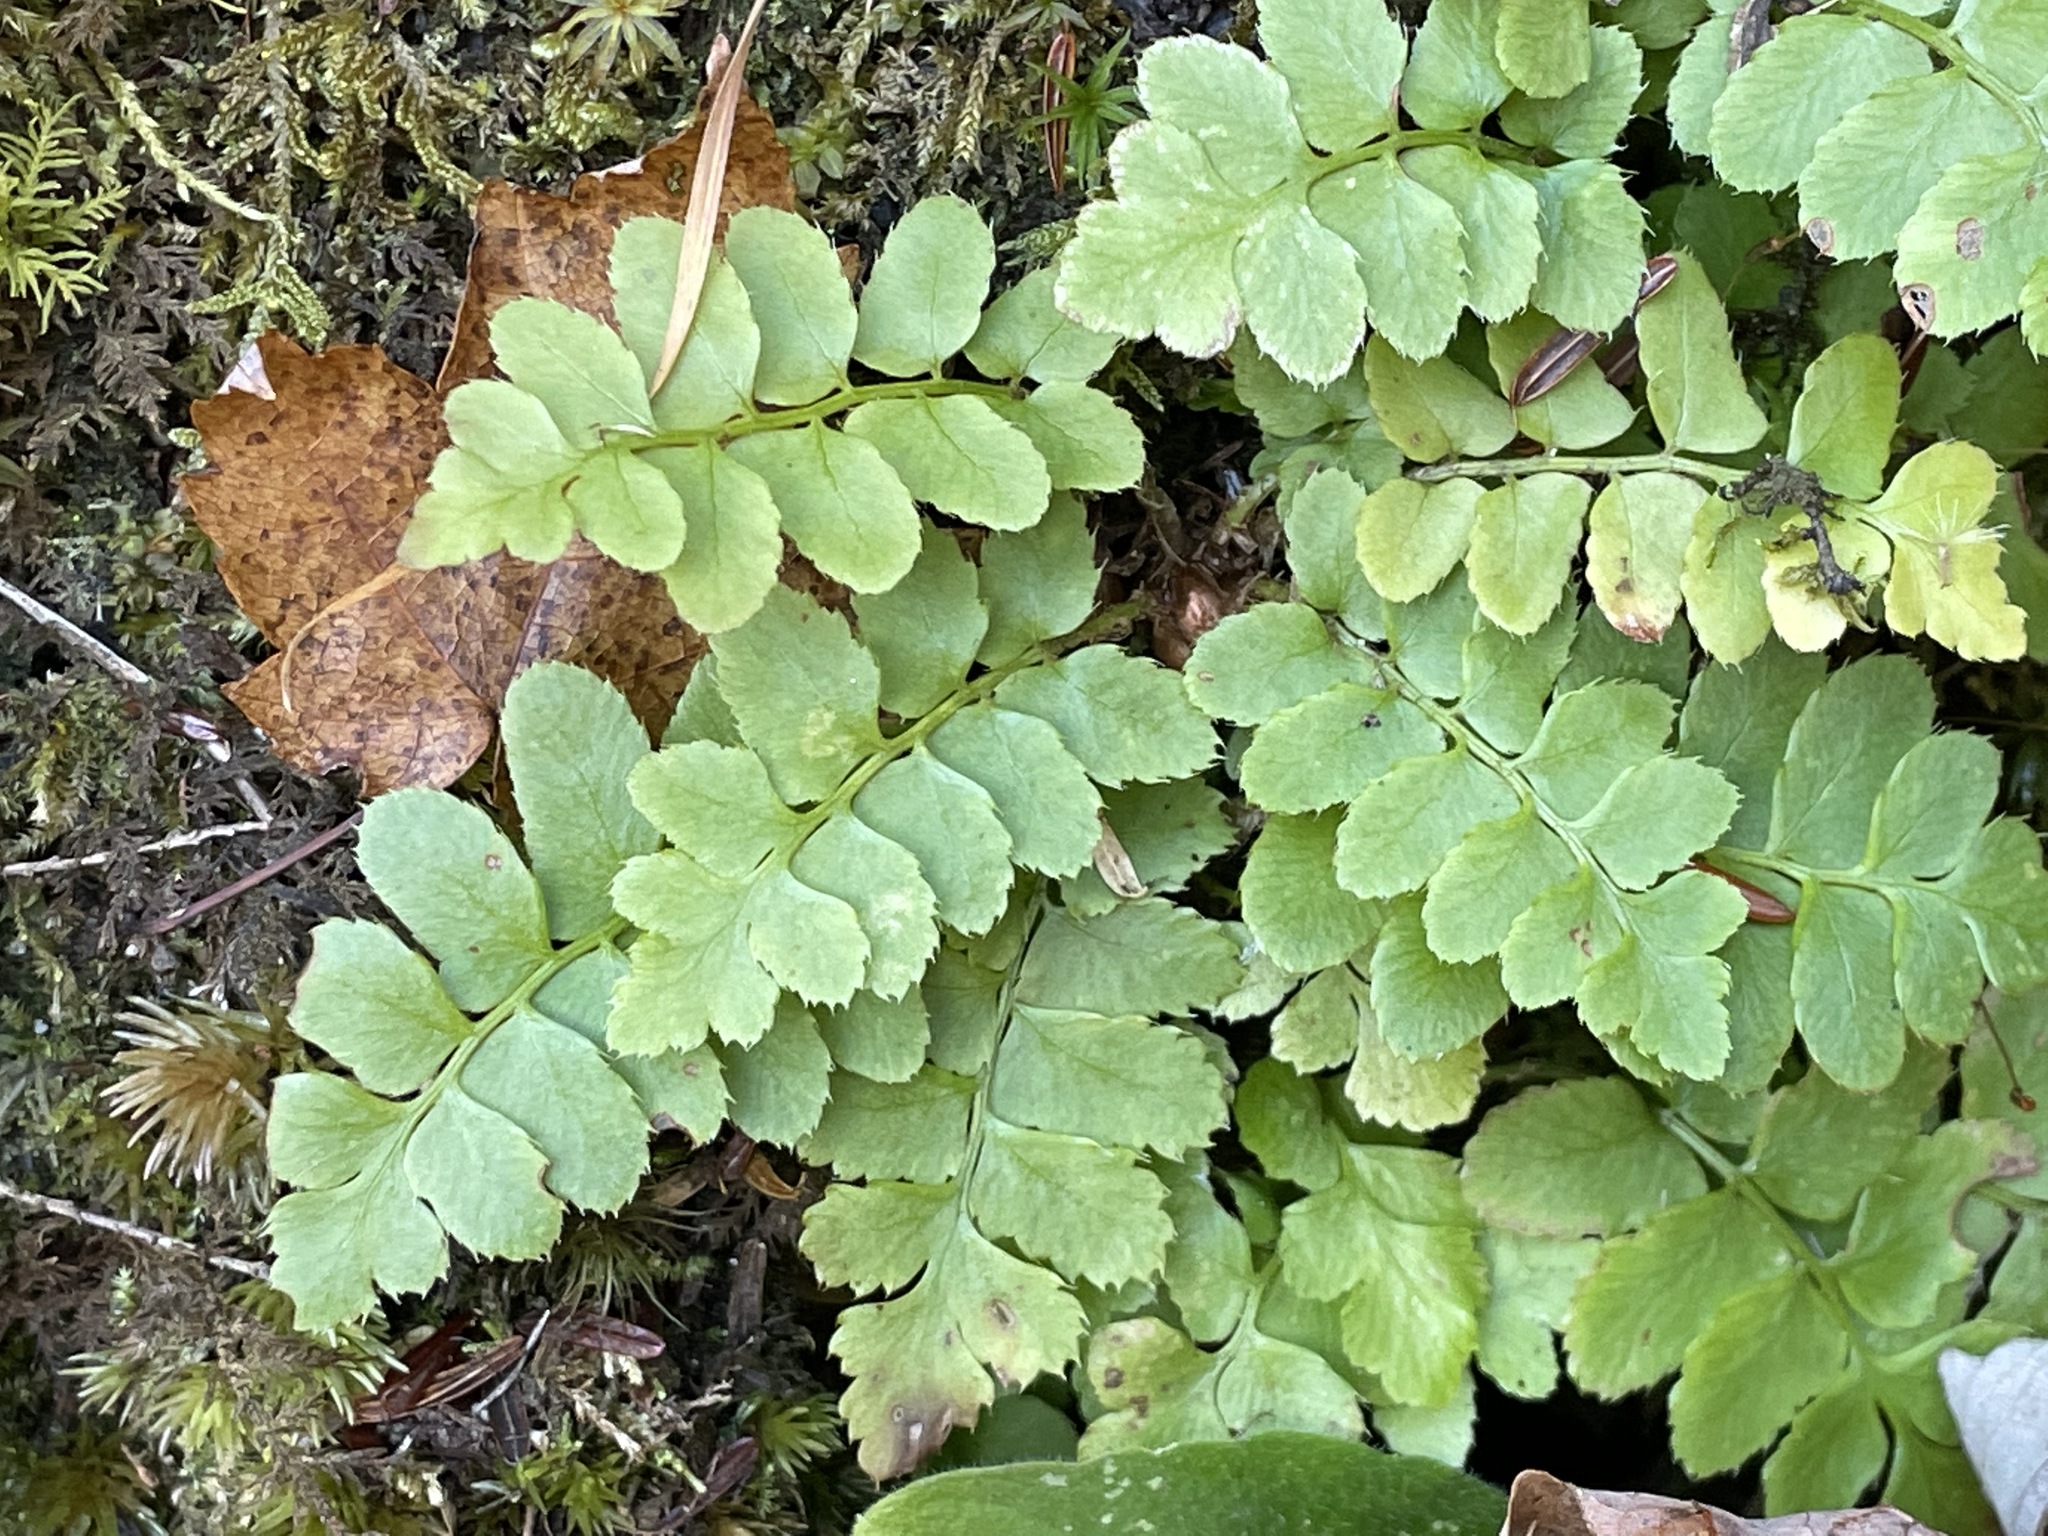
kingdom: Plantae
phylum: Tracheophyta
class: Polypodiopsida
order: Polypodiales
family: Dryopteridaceae
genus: Polystichum
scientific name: Polystichum acrostichoides
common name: Christmas fern
